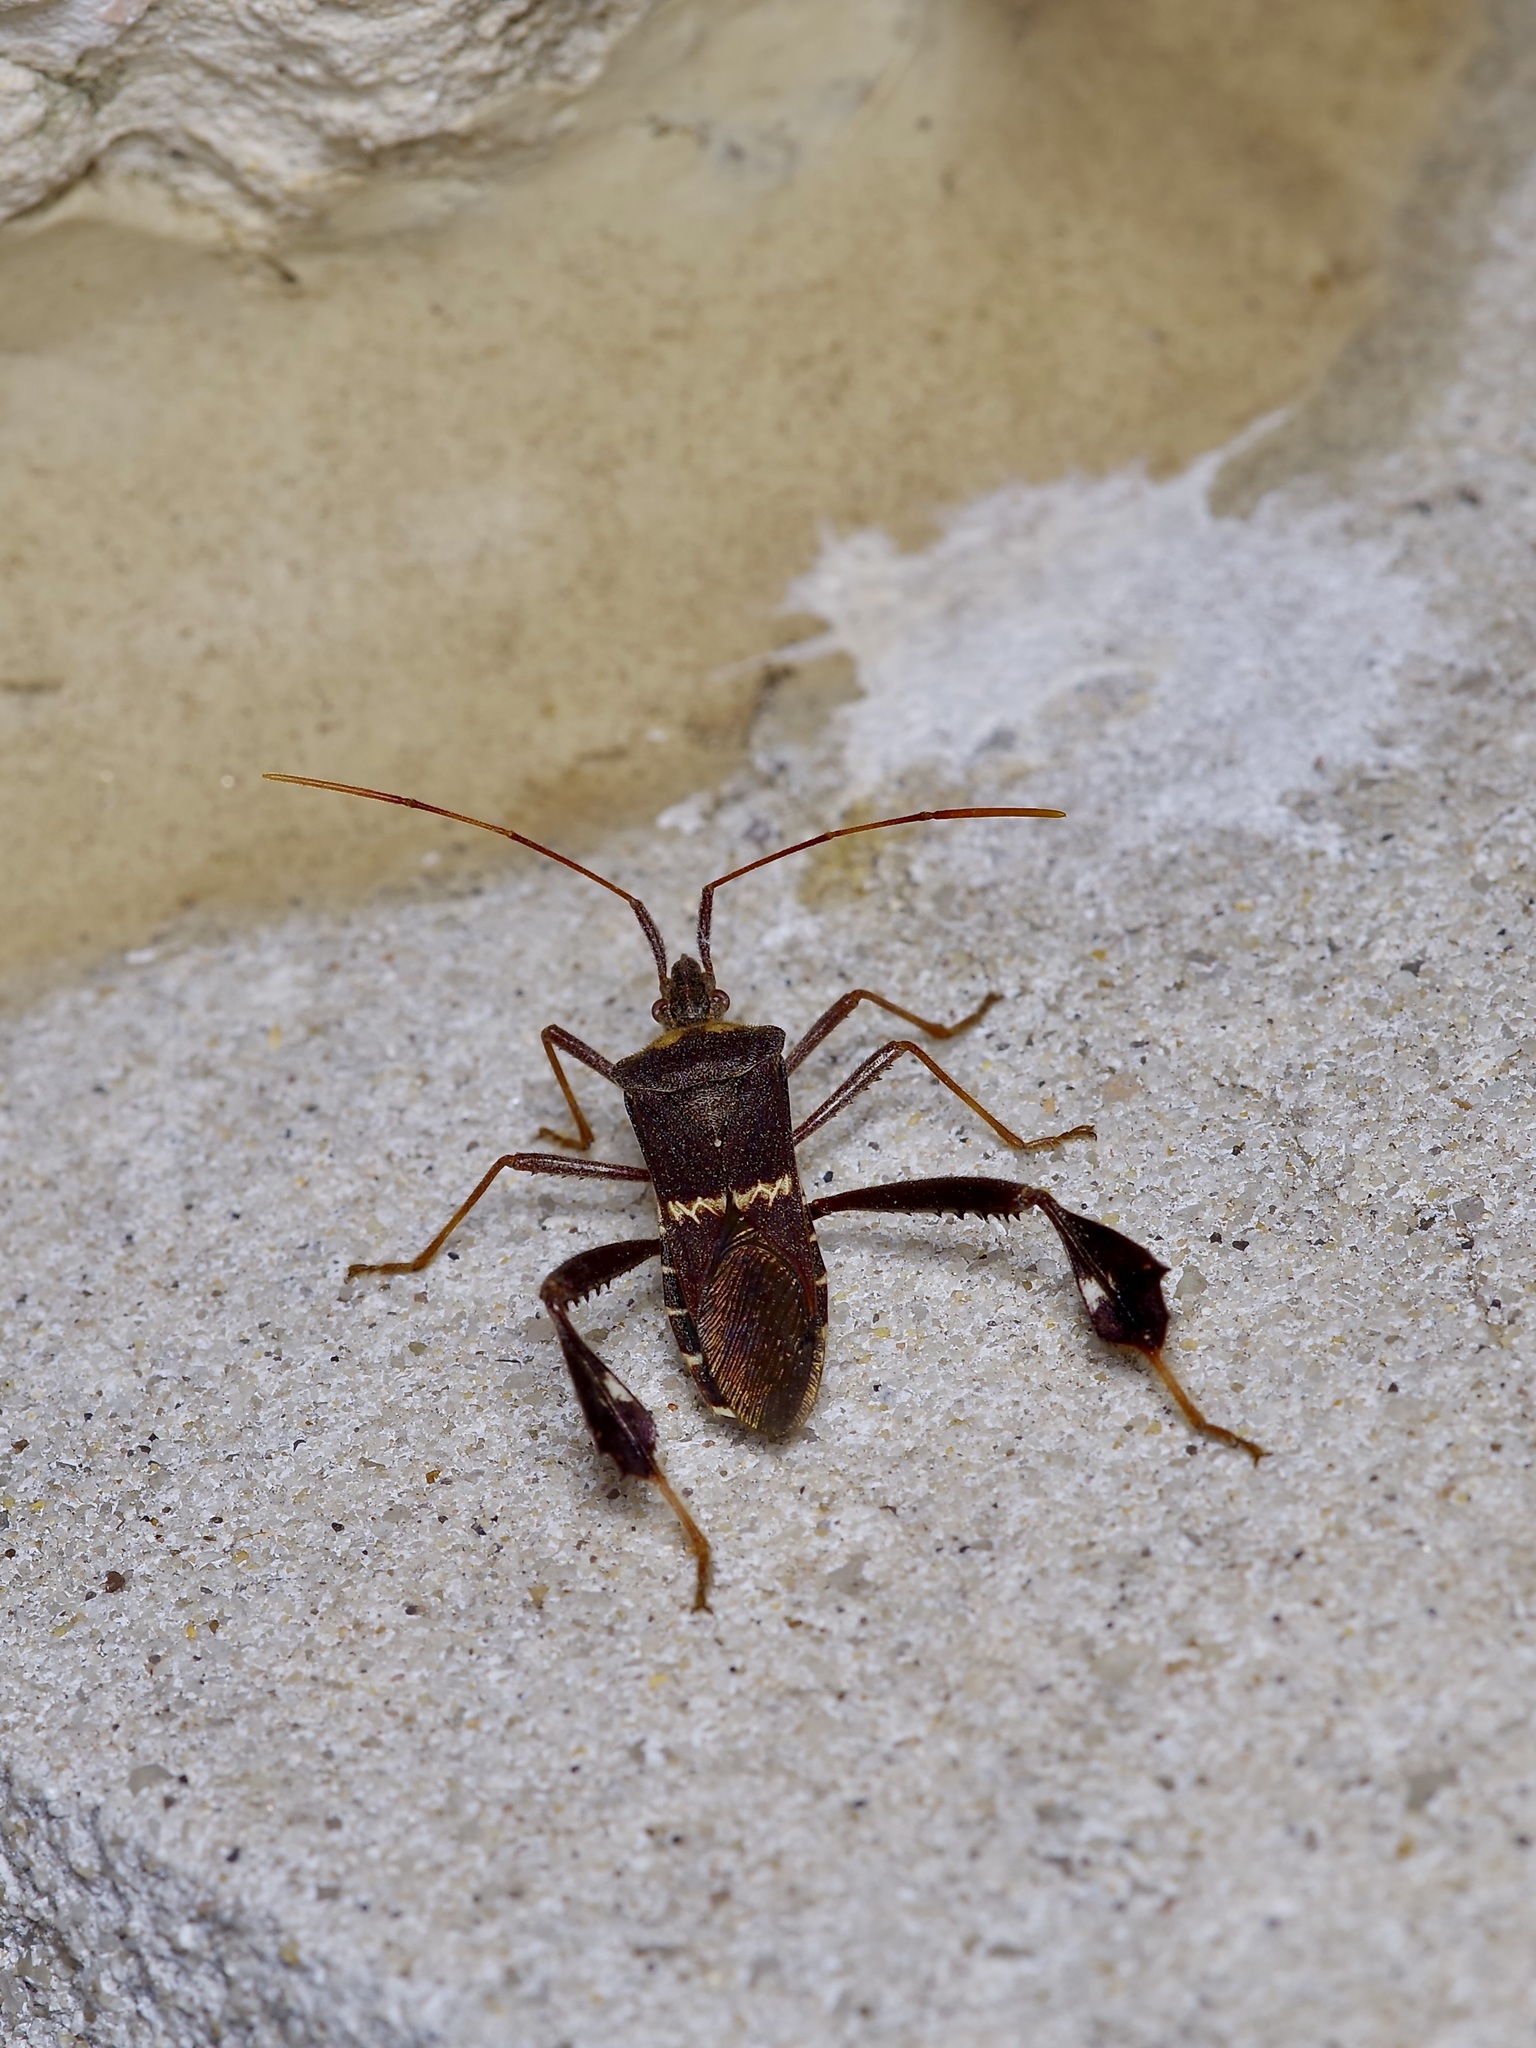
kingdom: Animalia
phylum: Arthropoda
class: Insecta
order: Hemiptera
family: Coreidae
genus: Leptoglossus
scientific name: Leptoglossus zonatus
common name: Large-legged bug
